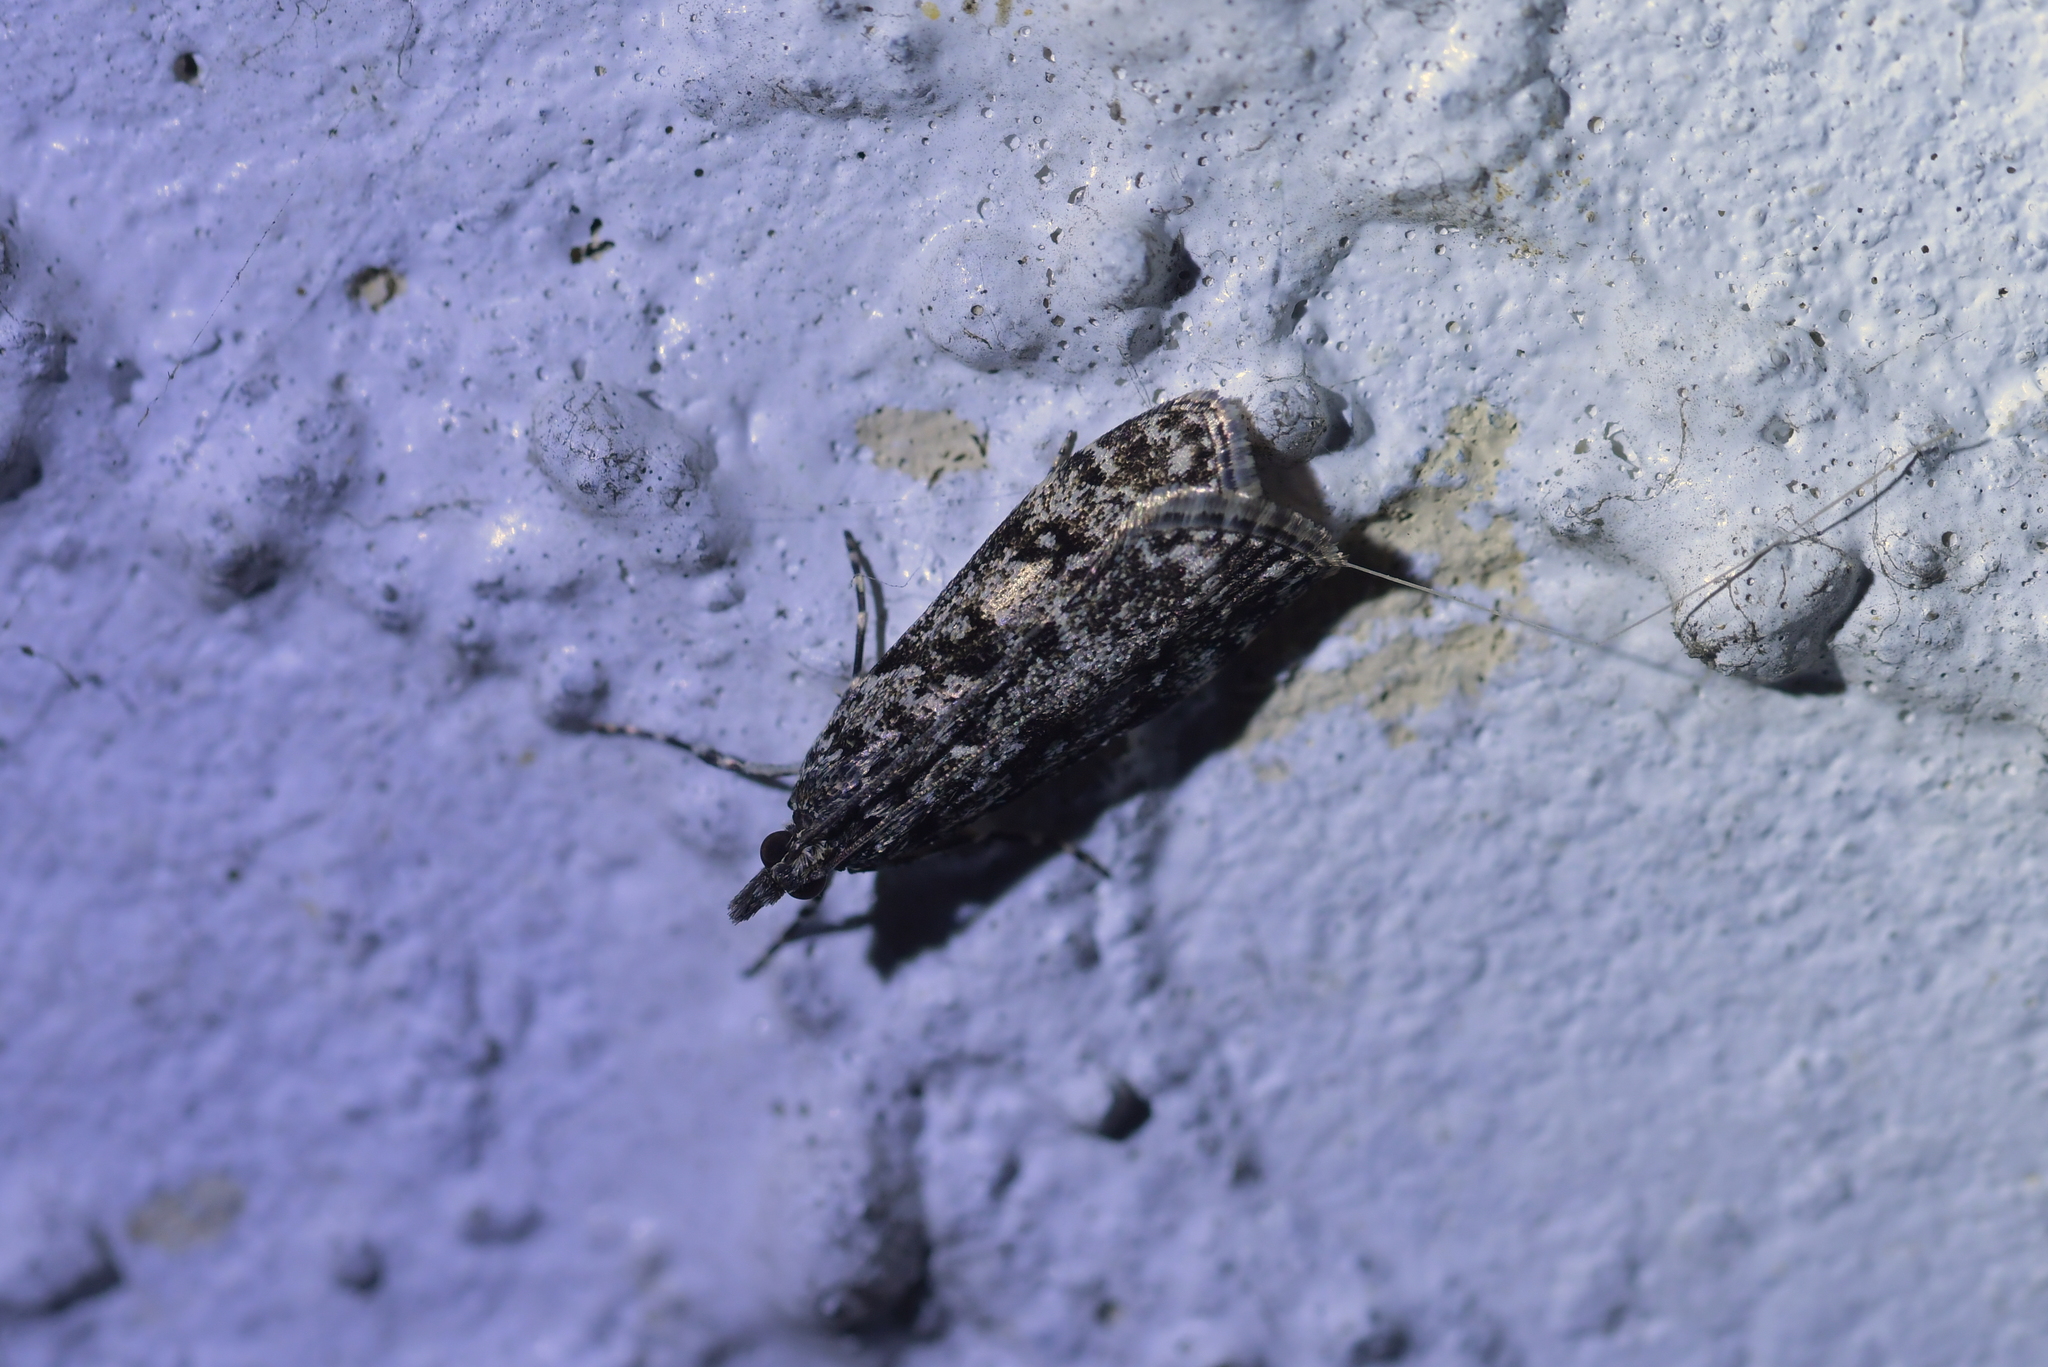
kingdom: Animalia
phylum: Arthropoda
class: Insecta
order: Lepidoptera
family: Crambidae
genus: Eudonia
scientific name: Eudonia philerga
